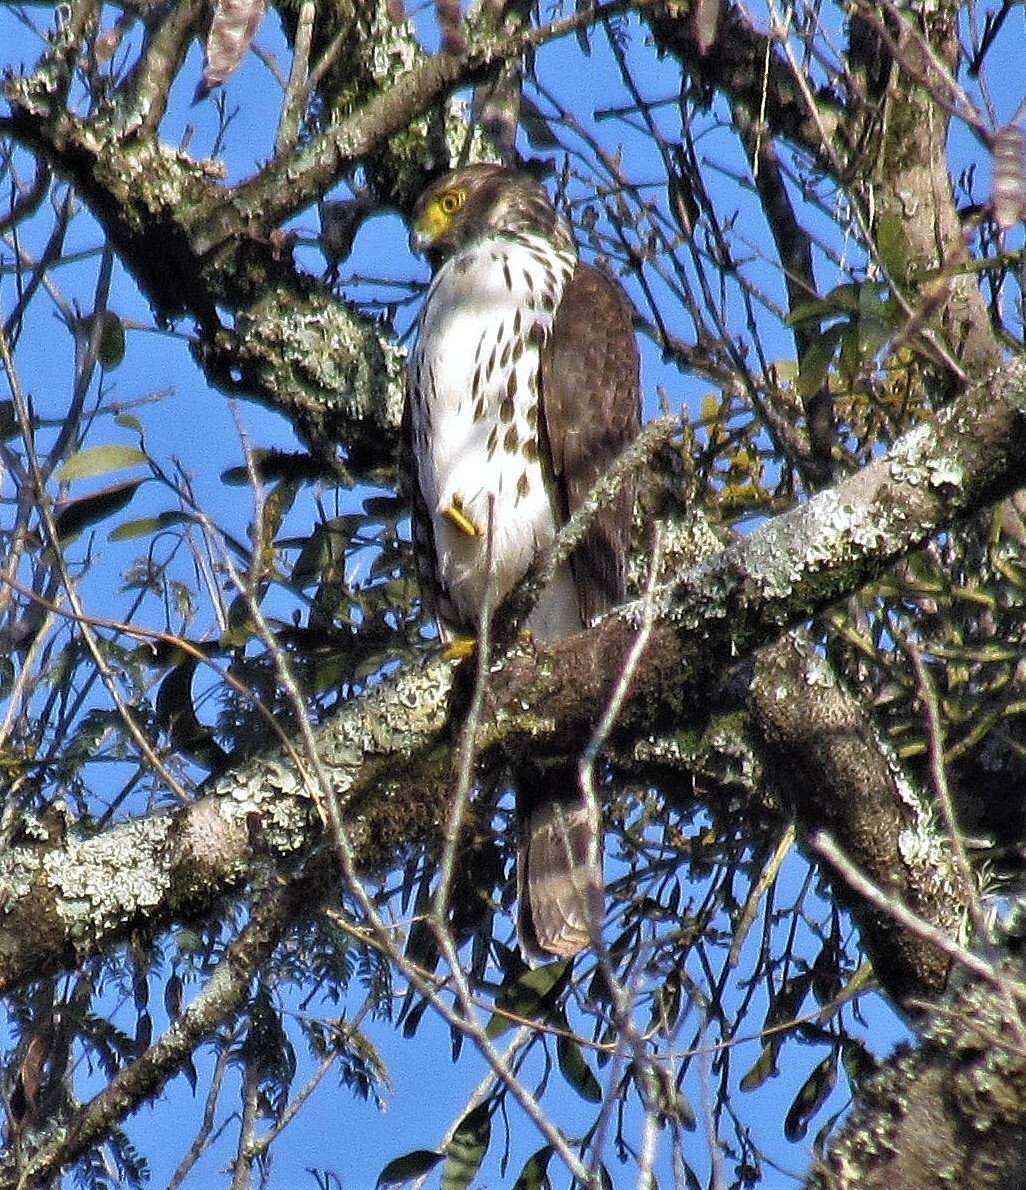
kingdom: Animalia
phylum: Chordata
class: Aves
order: Accipitriformes
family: Accipitridae
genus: Accipiter
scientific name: Accipiter bicolor
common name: Bicolored hawk
